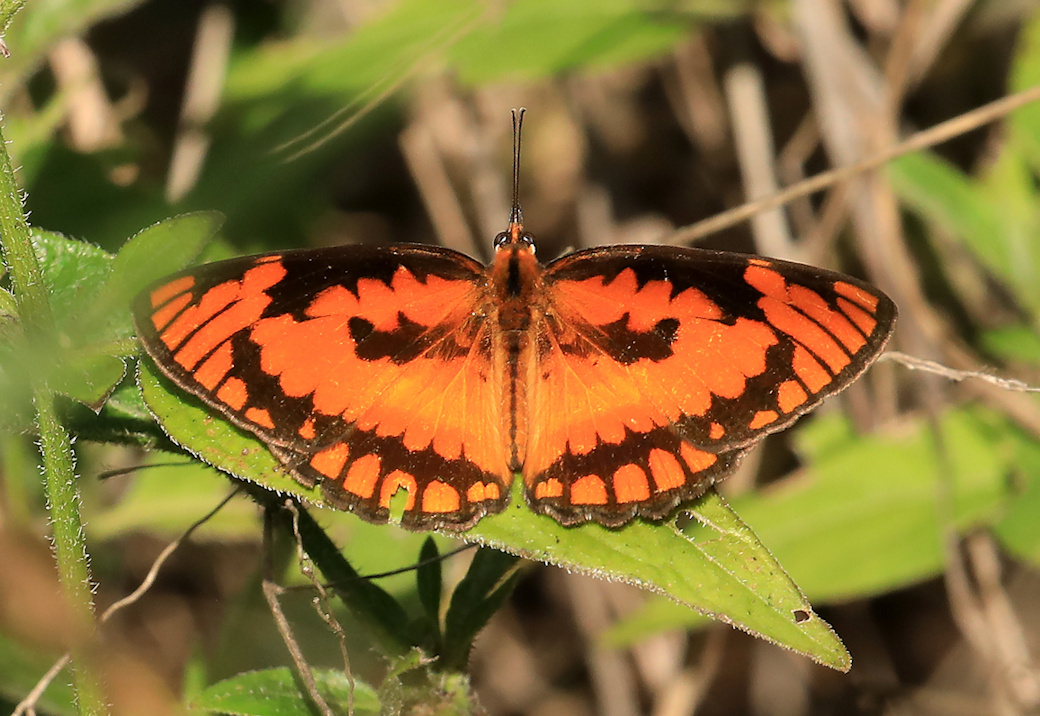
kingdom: Animalia
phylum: Arthropoda
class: Insecta
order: Lepidoptera
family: Nymphalidae
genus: Byblia
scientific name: Byblia acheloia
